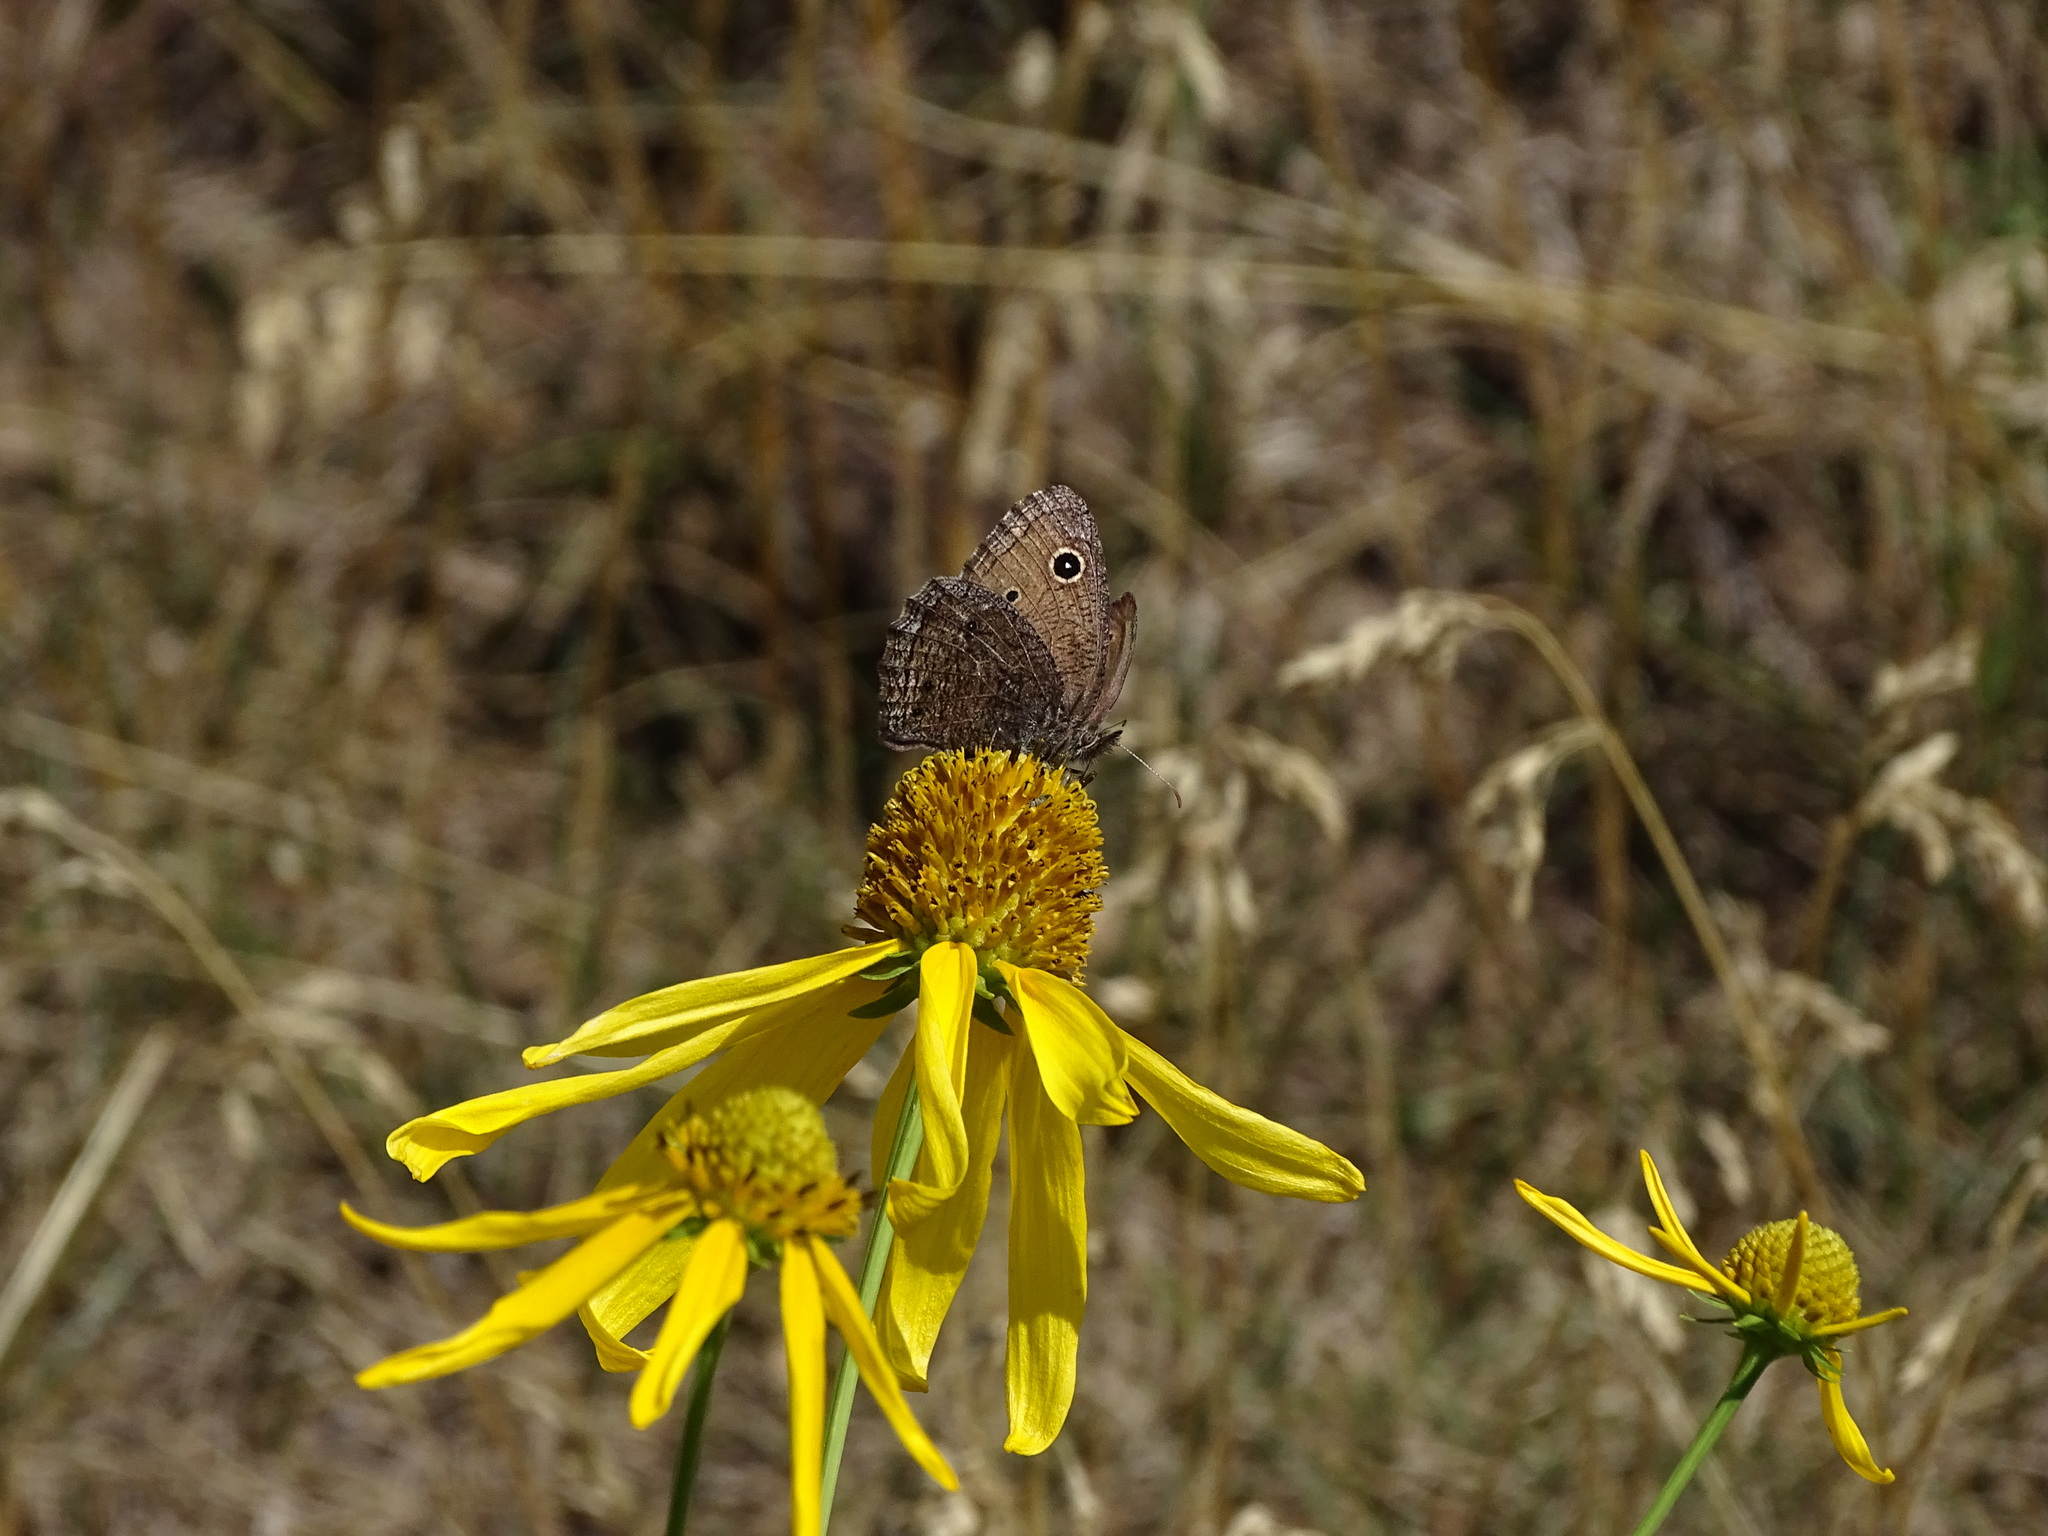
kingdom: Animalia
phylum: Arthropoda
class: Insecta
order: Lepidoptera
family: Nymphalidae
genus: Cercyonis
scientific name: Cercyonis oetus
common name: Small wood-nymph
